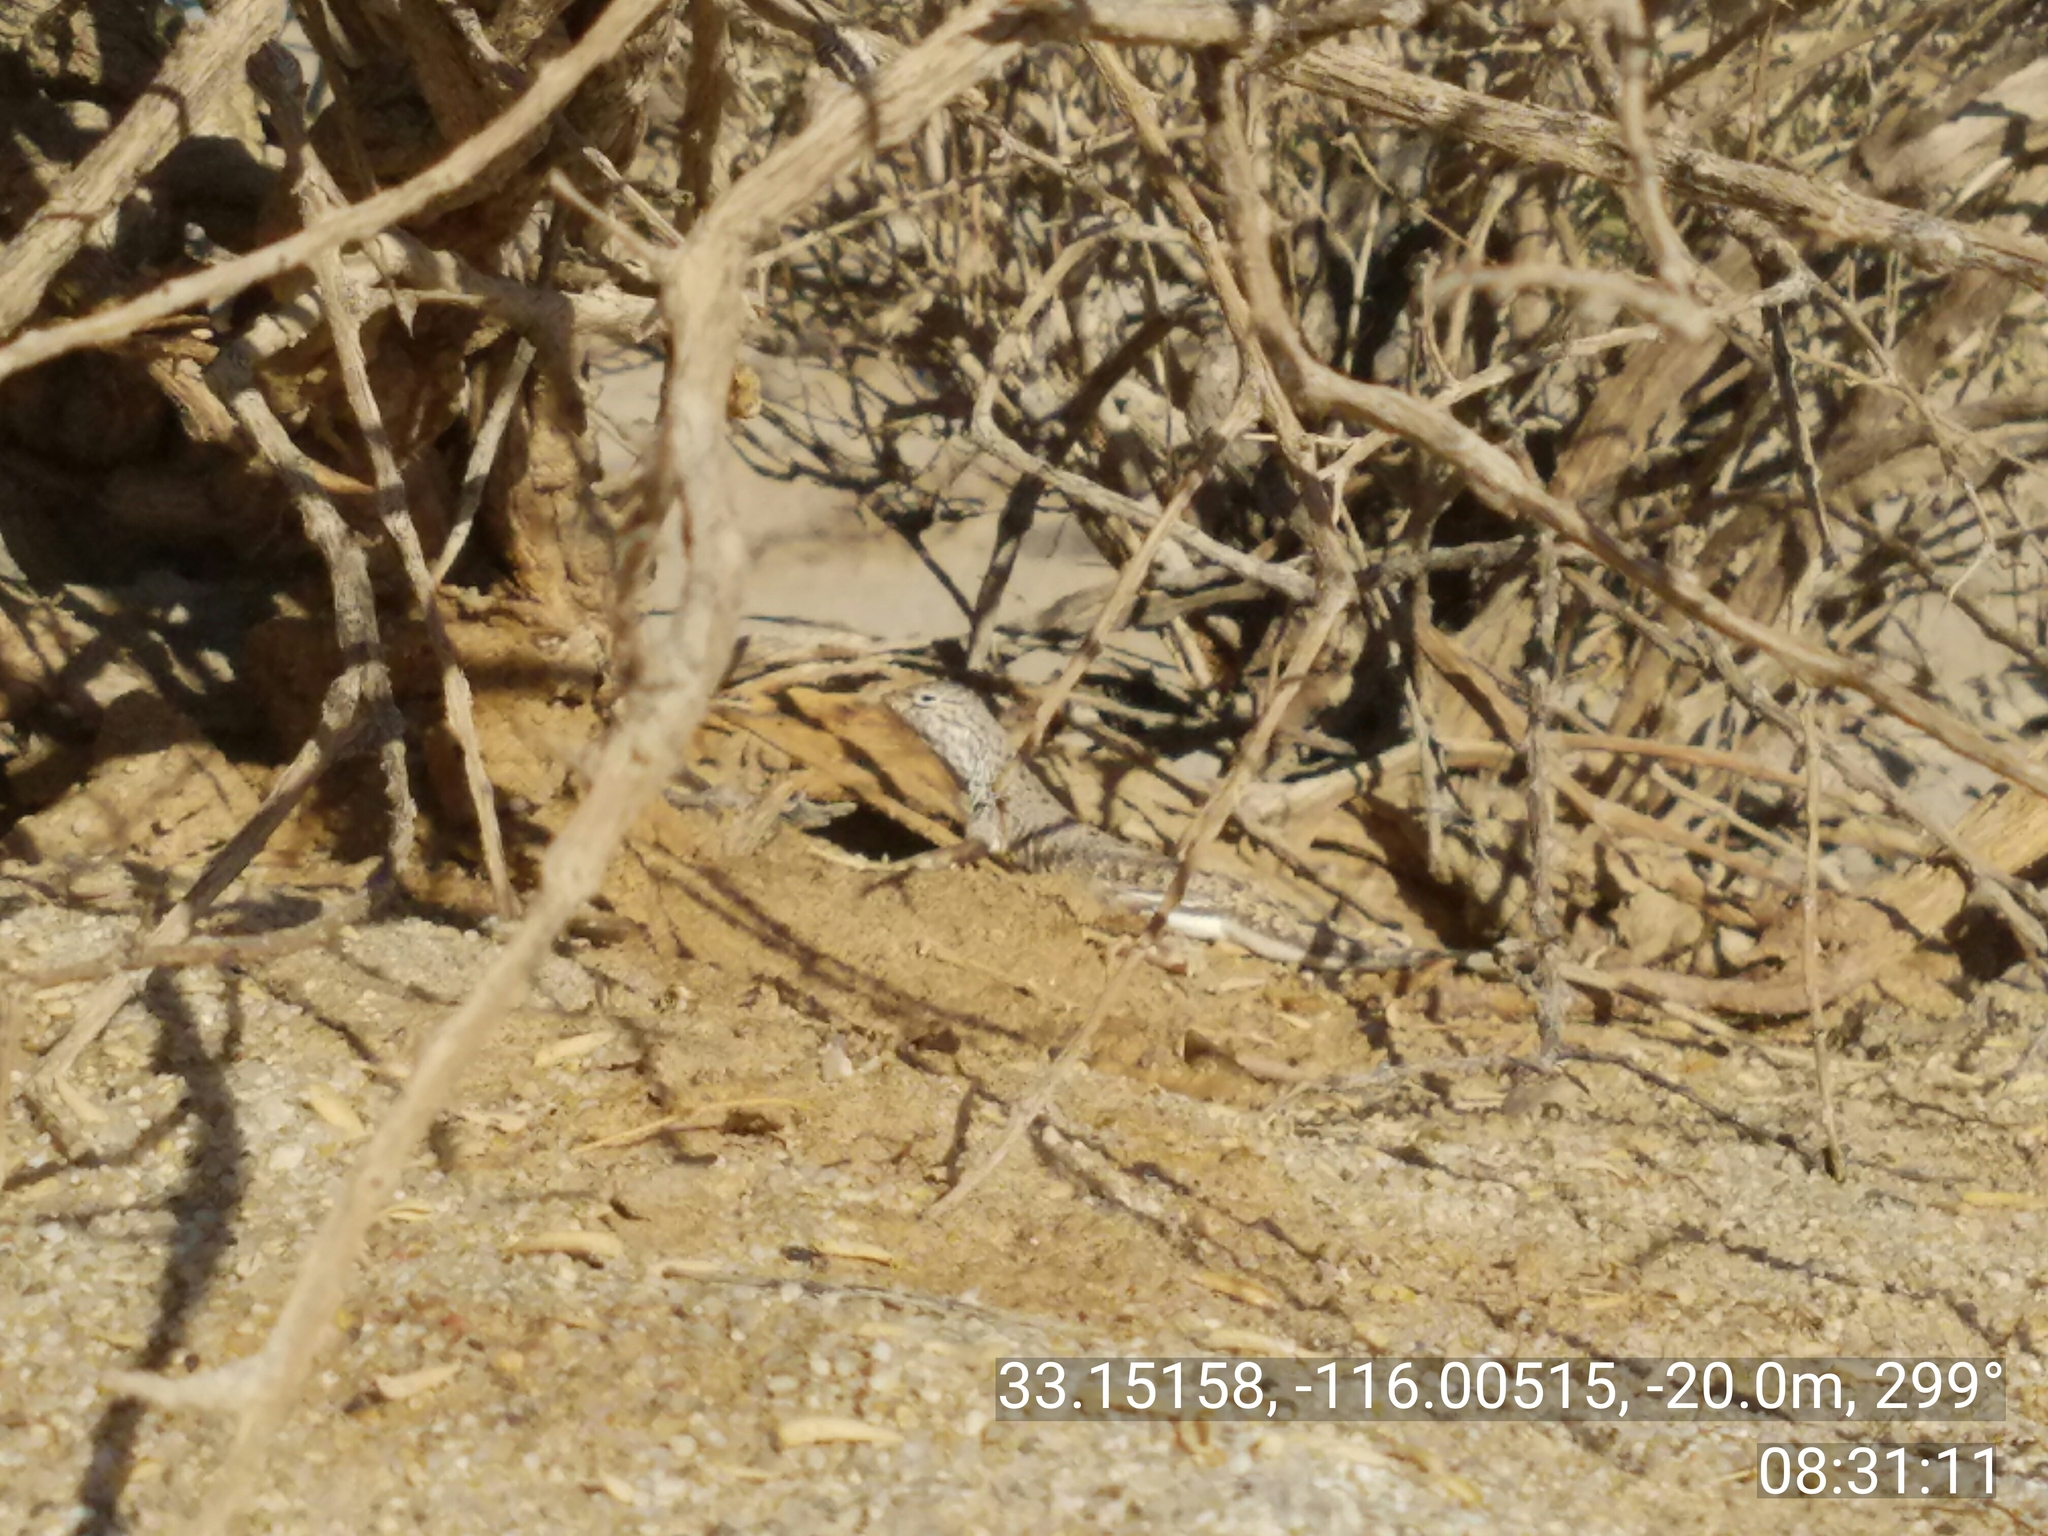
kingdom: Animalia
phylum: Chordata
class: Squamata
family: Phrynosomatidae
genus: Callisaurus
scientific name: Callisaurus draconoides
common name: Zebra-tailed lizard
